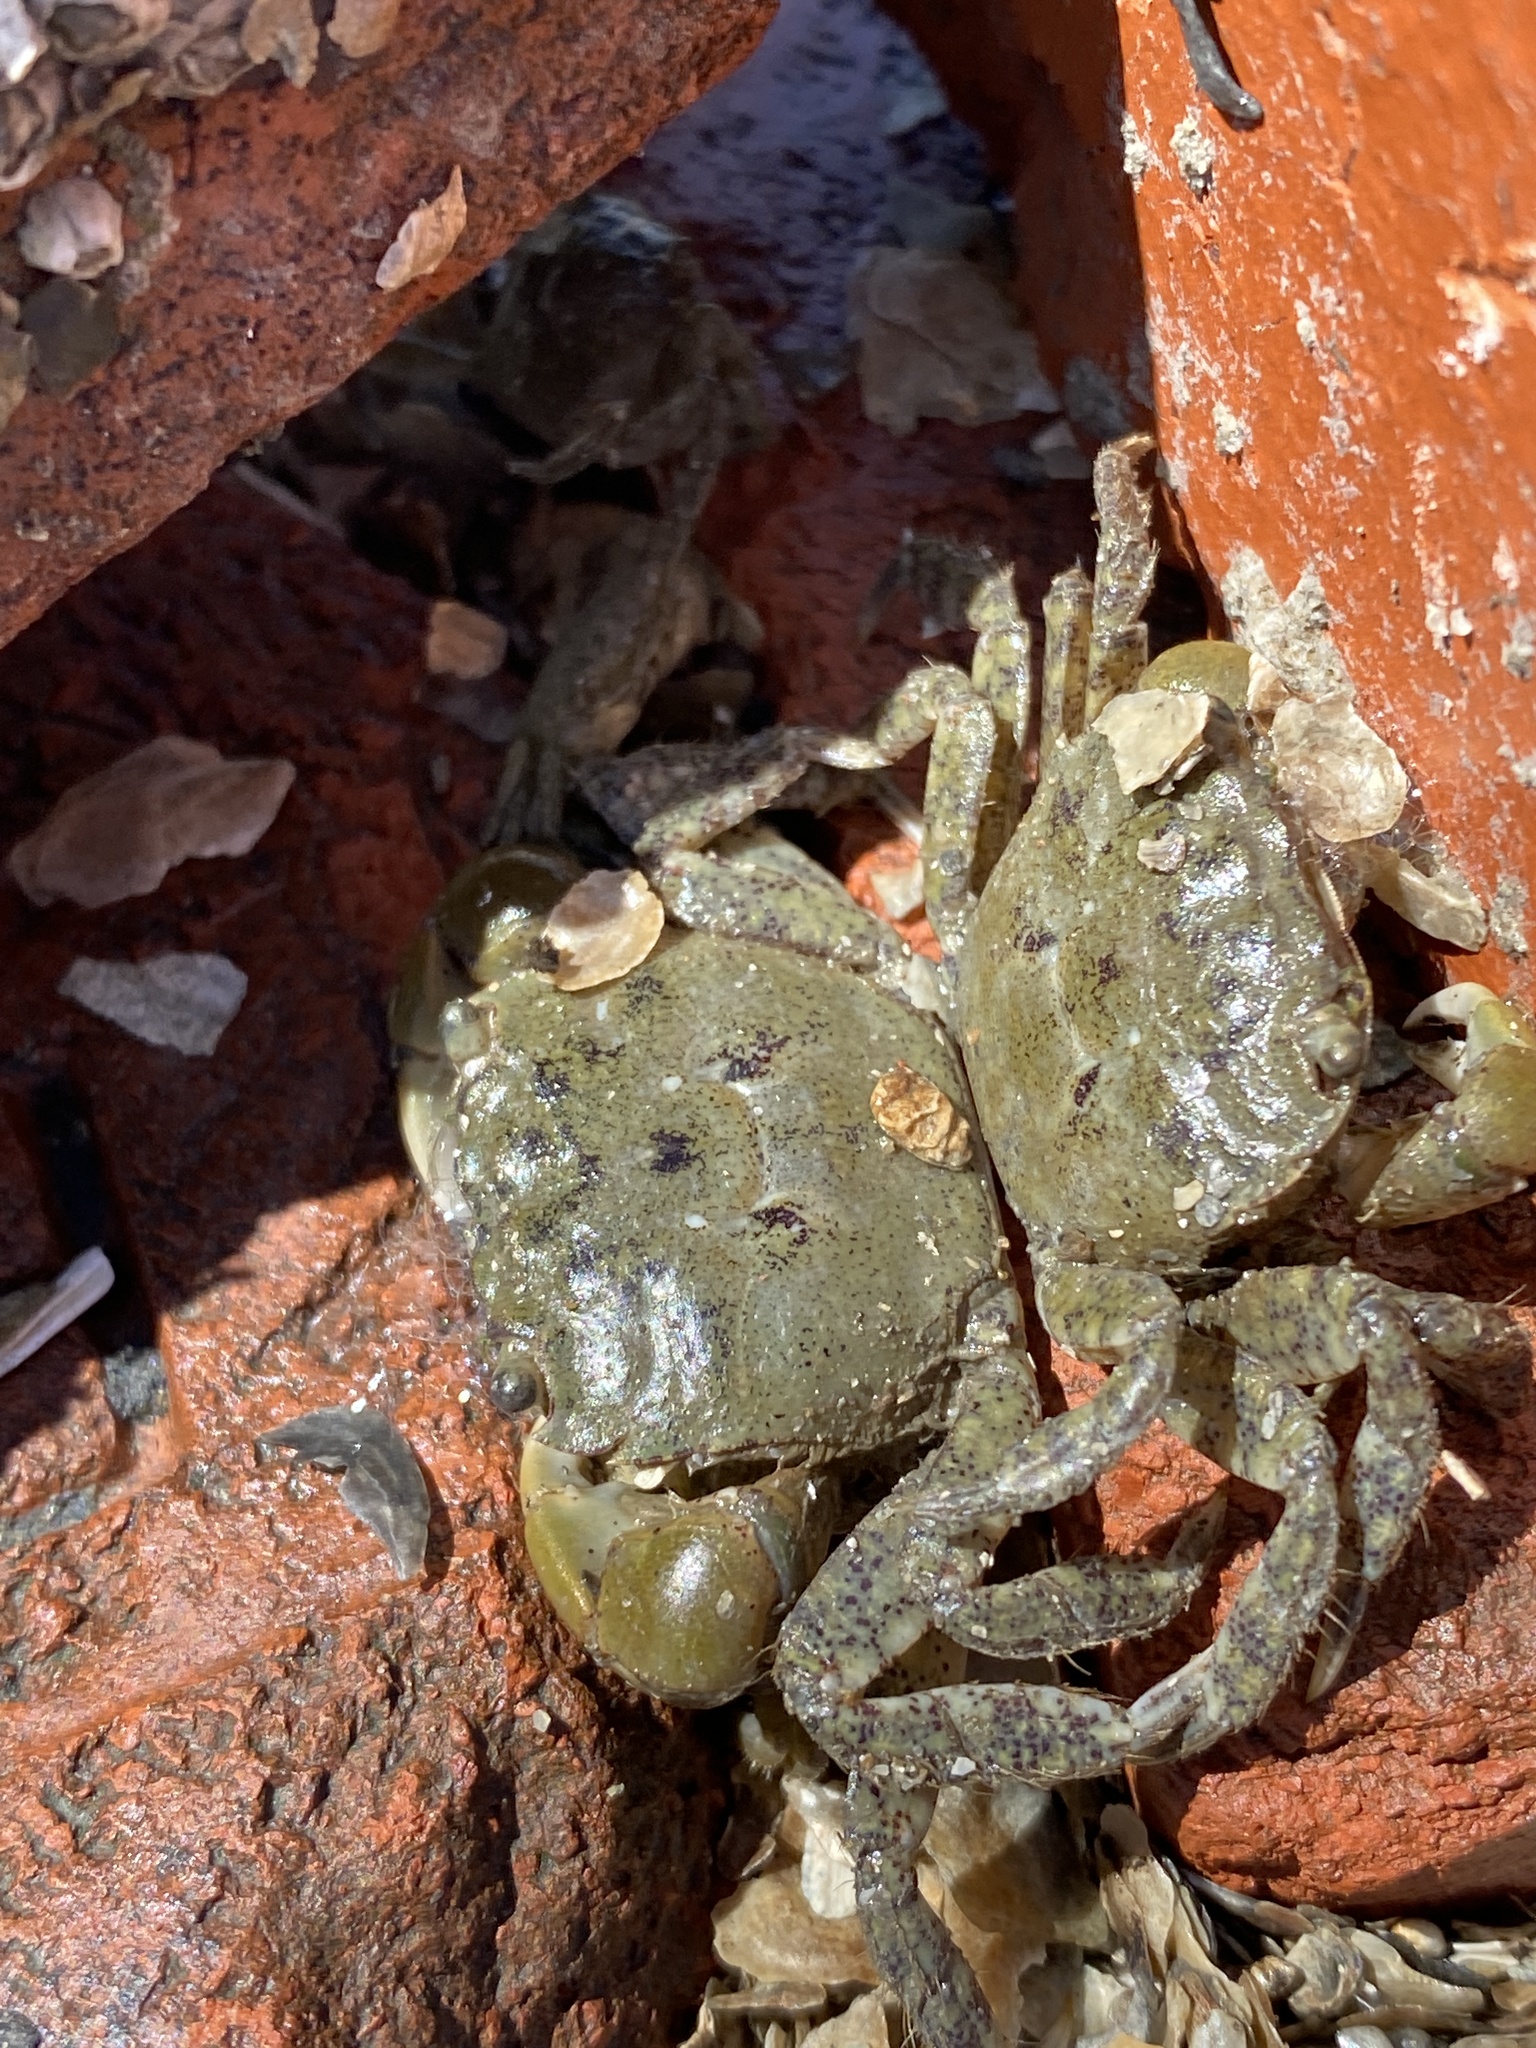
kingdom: Animalia
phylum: Arthropoda
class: Malacostraca
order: Decapoda
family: Varunidae
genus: Hemigrapsus
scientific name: Hemigrapsus oregonensis
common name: Yellow shore crab
